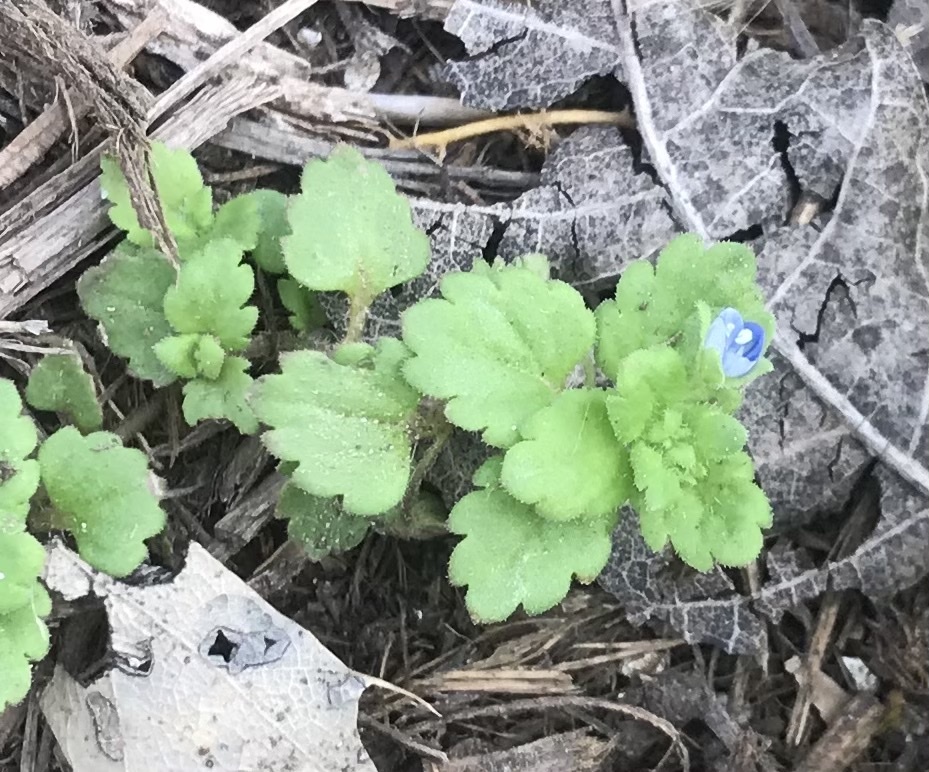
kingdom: Plantae
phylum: Tracheophyta
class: Magnoliopsida
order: Lamiales
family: Plantaginaceae
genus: Veronica
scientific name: Veronica polita
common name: Grey field-speedwell
